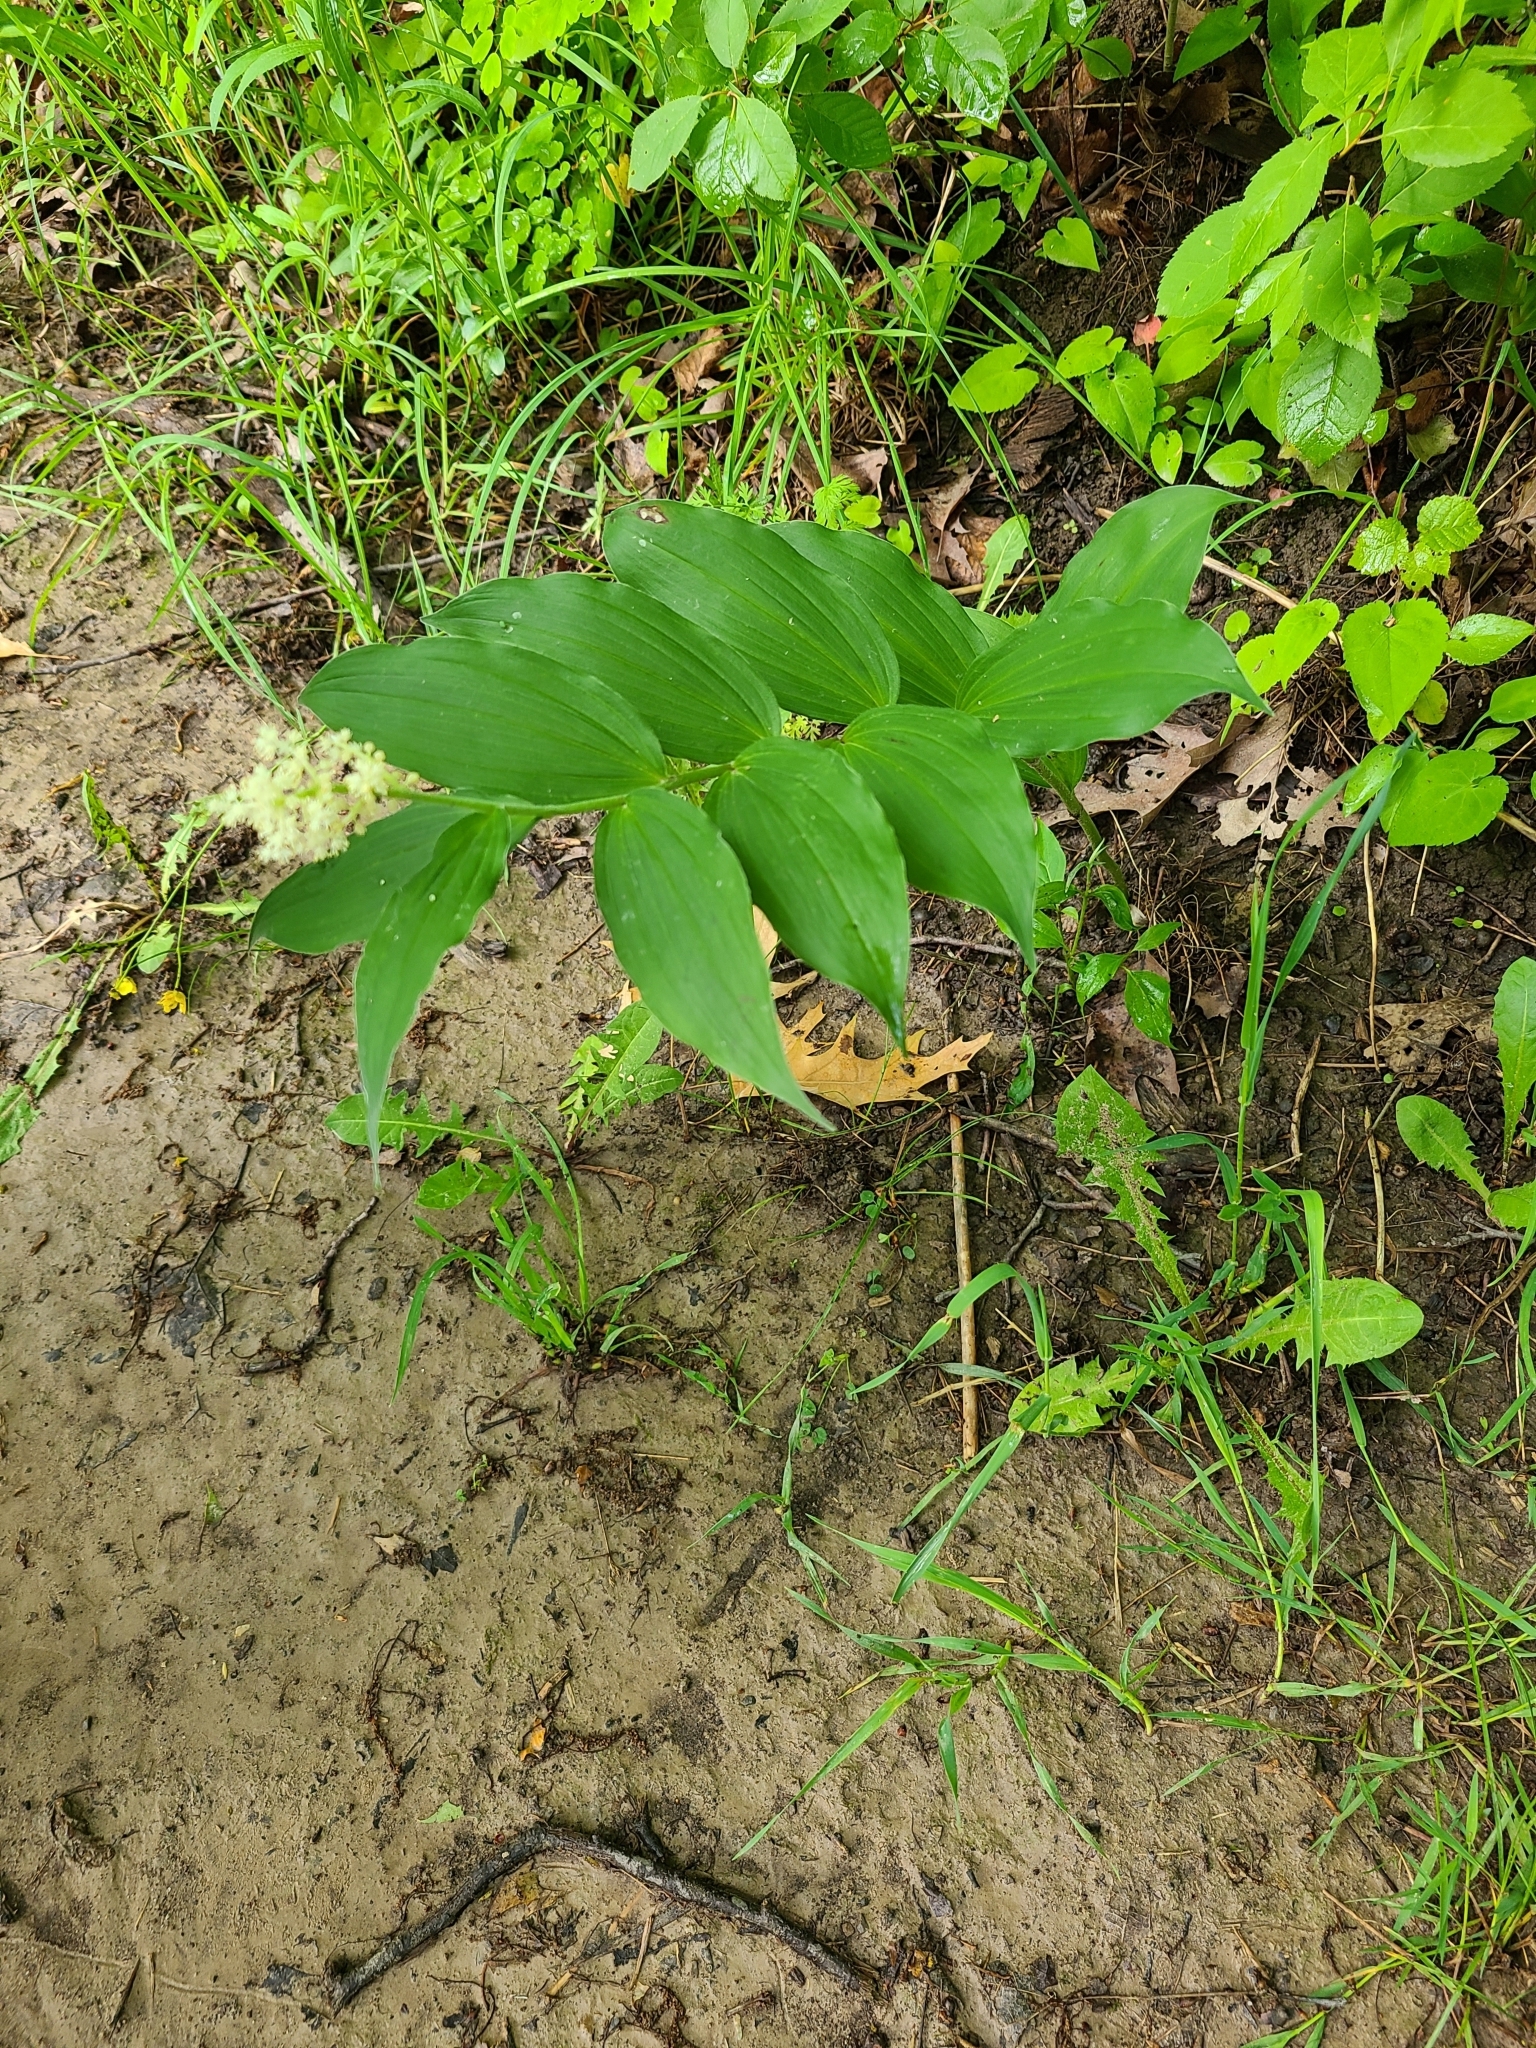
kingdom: Plantae
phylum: Tracheophyta
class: Liliopsida
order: Asparagales
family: Asparagaceae
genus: Maianthemum
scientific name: Maianthemum racemosum
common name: False spikenard
